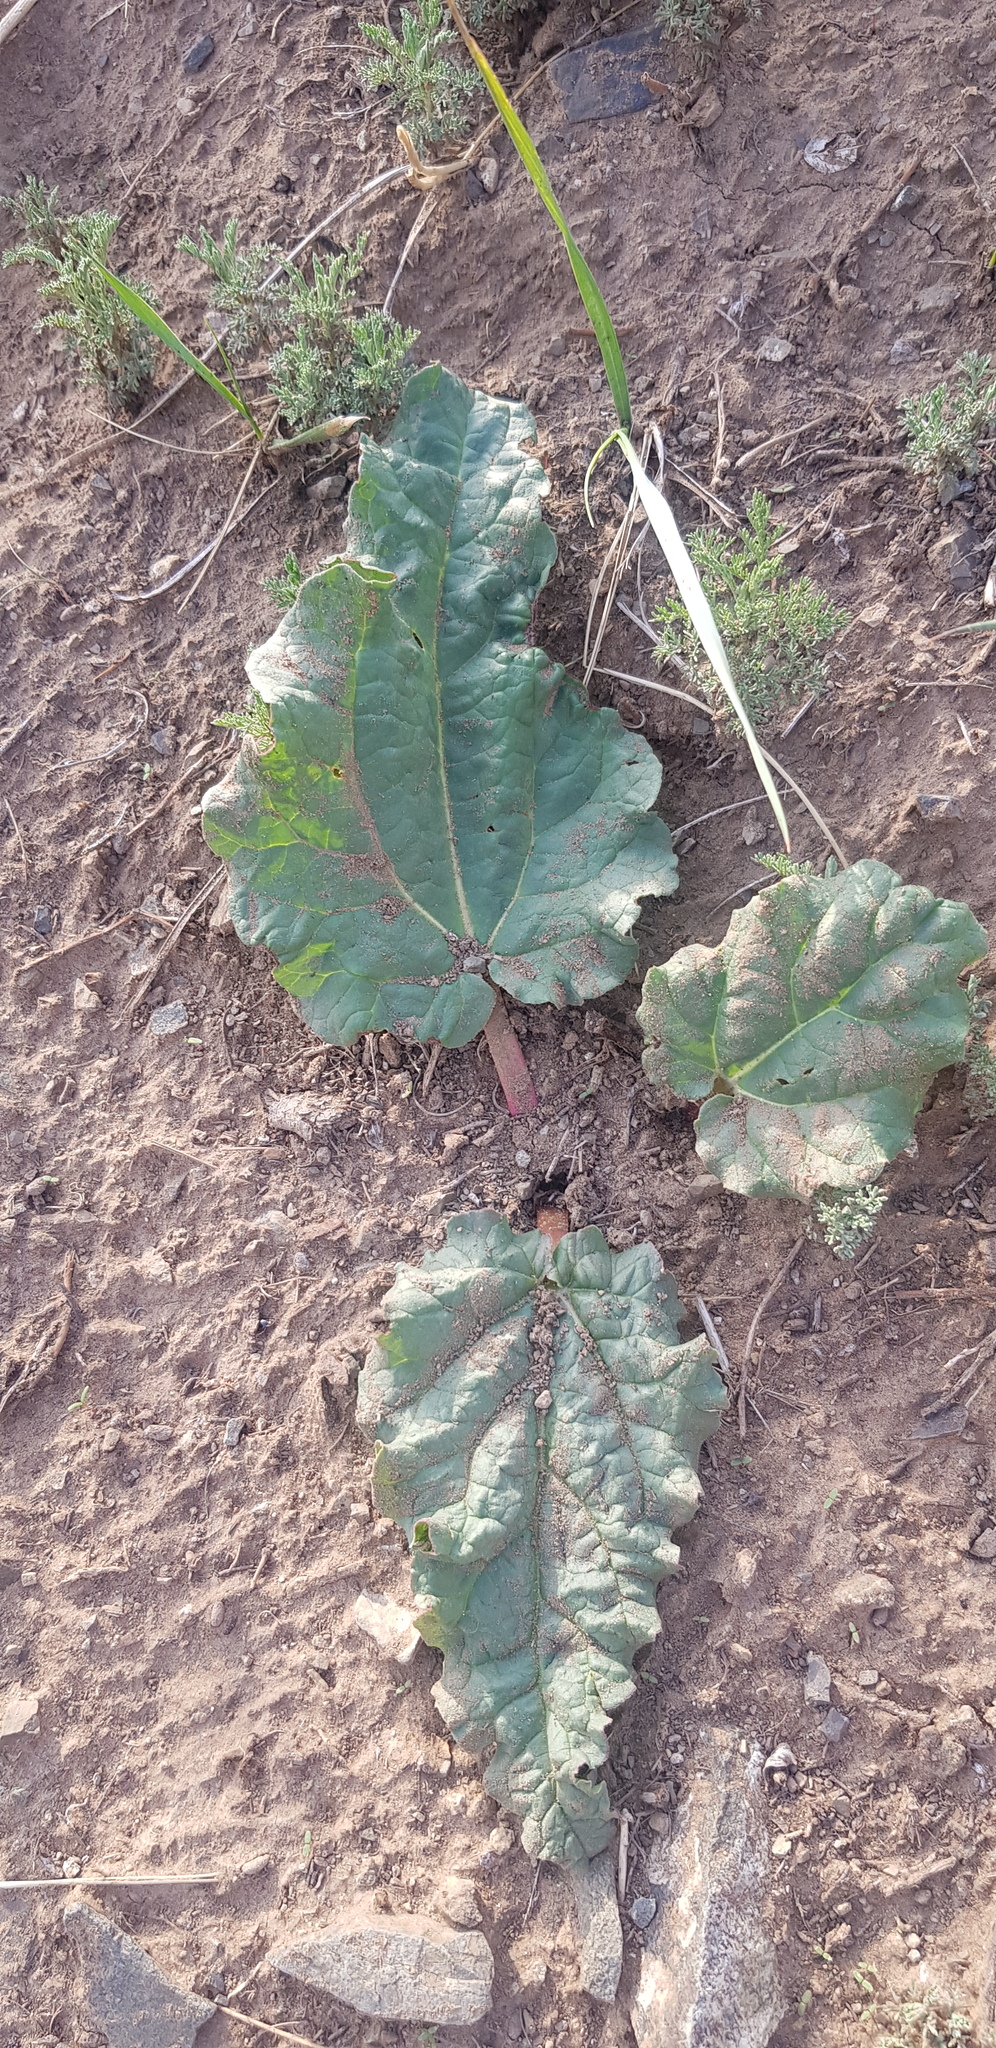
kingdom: Plantae
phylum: Tracheophyta
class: Magnoliopsida
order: Caryophyllales
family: Polygonaceae
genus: Rheum
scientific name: Rheum rhabarbarum
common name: Garden rhubarb
